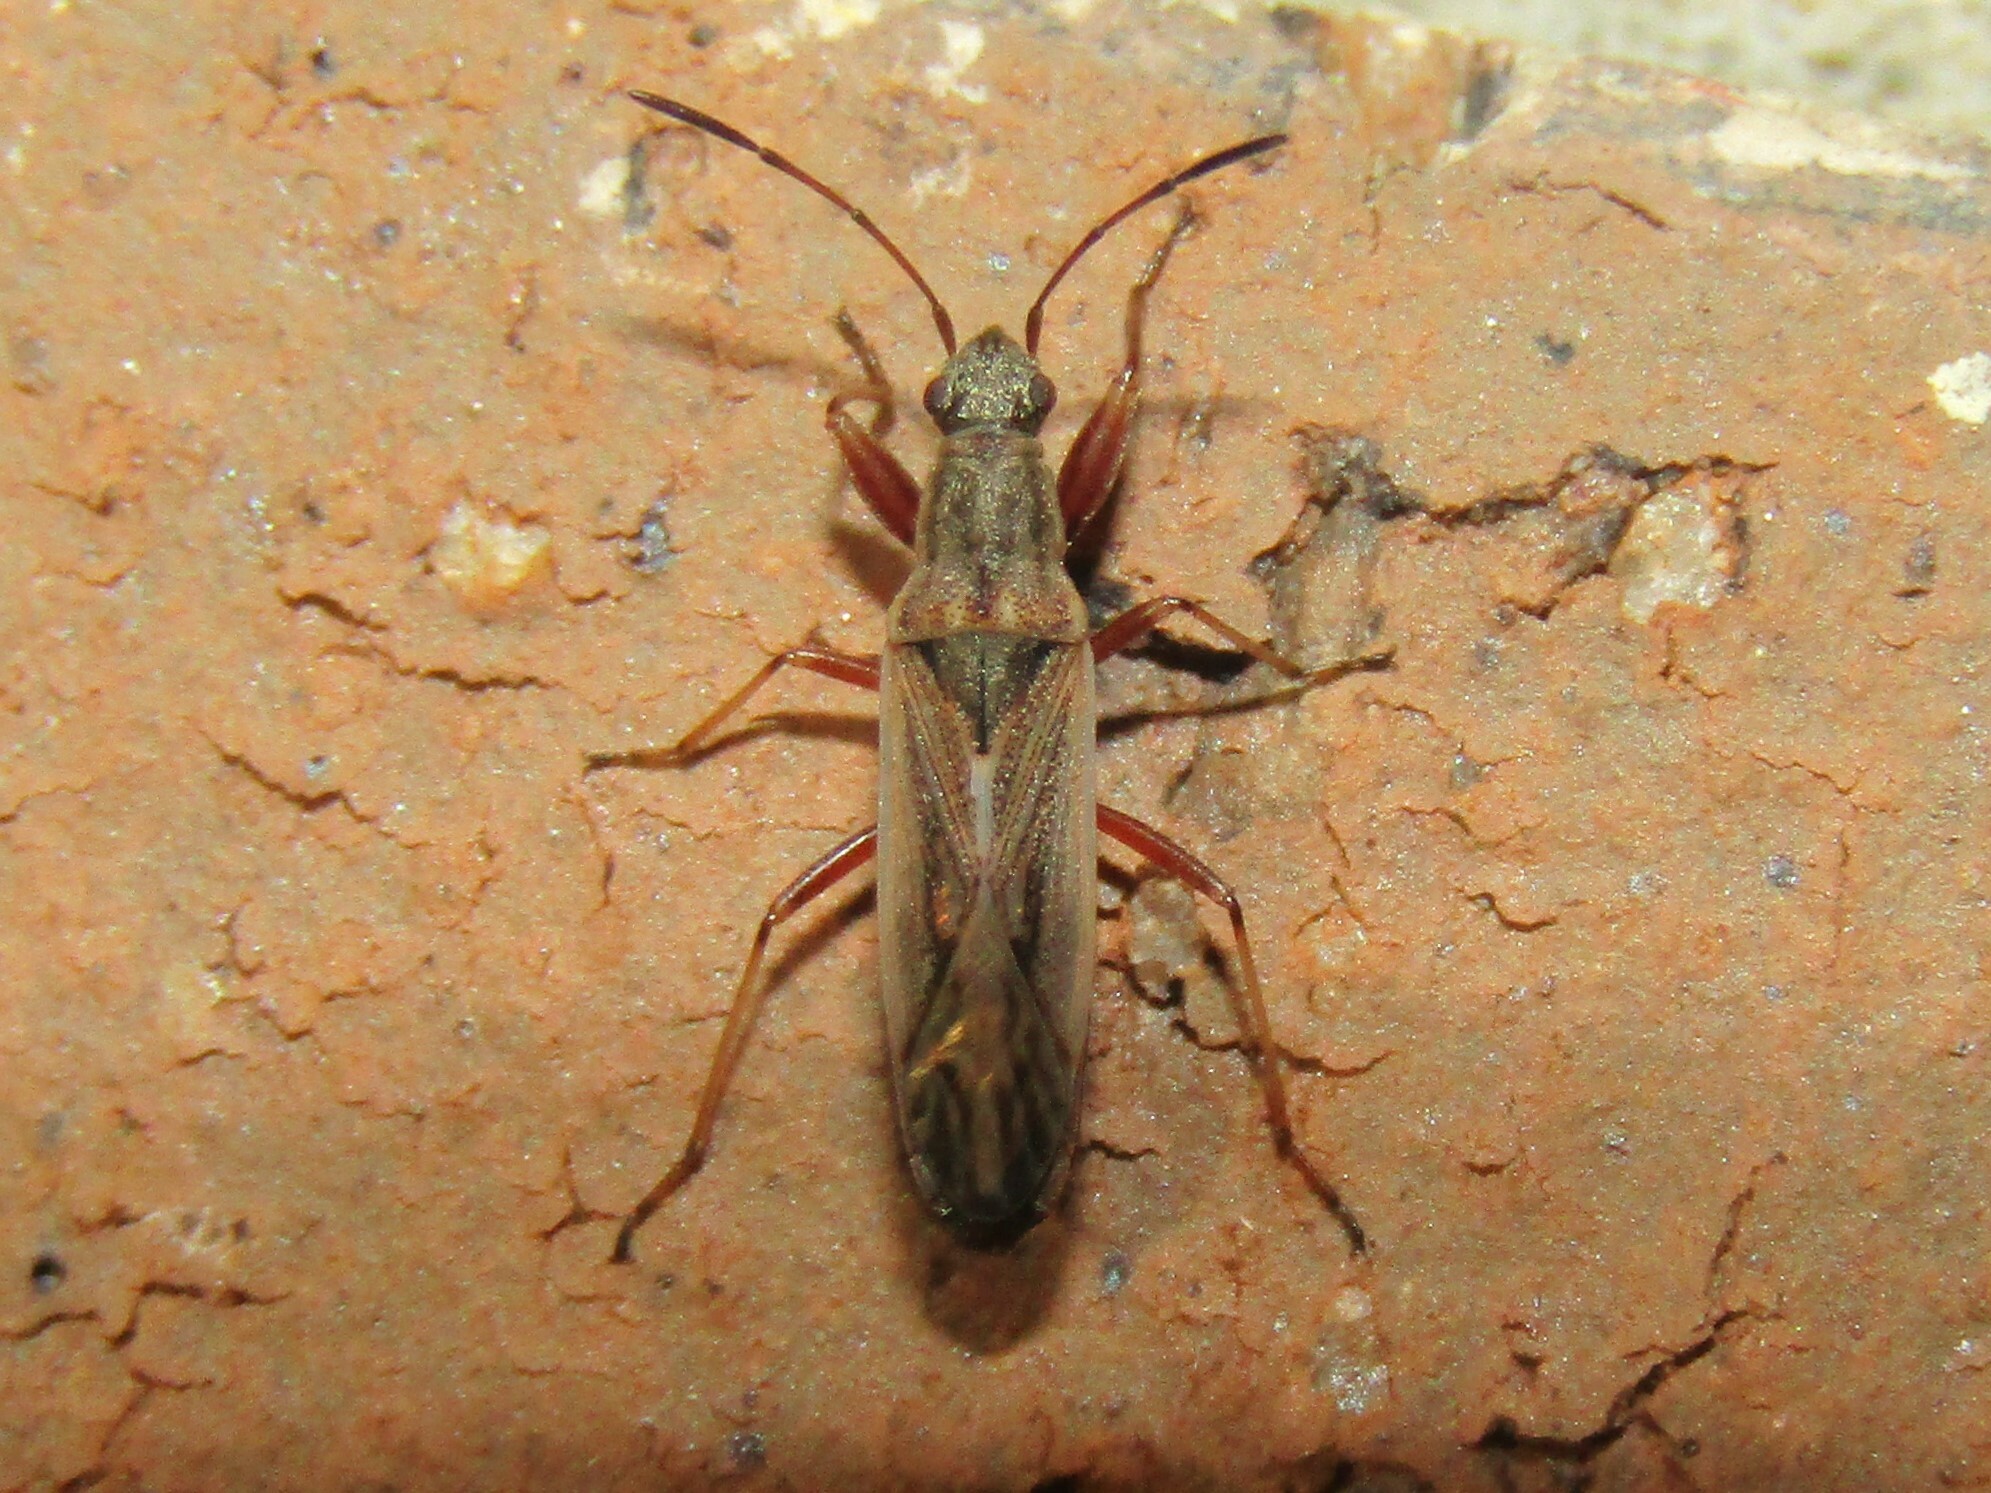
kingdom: Animalia
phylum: Arthropoda
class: Insecta
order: Hemiptera
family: Rhyparochromidae
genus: Paromius
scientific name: Paromius longulus
